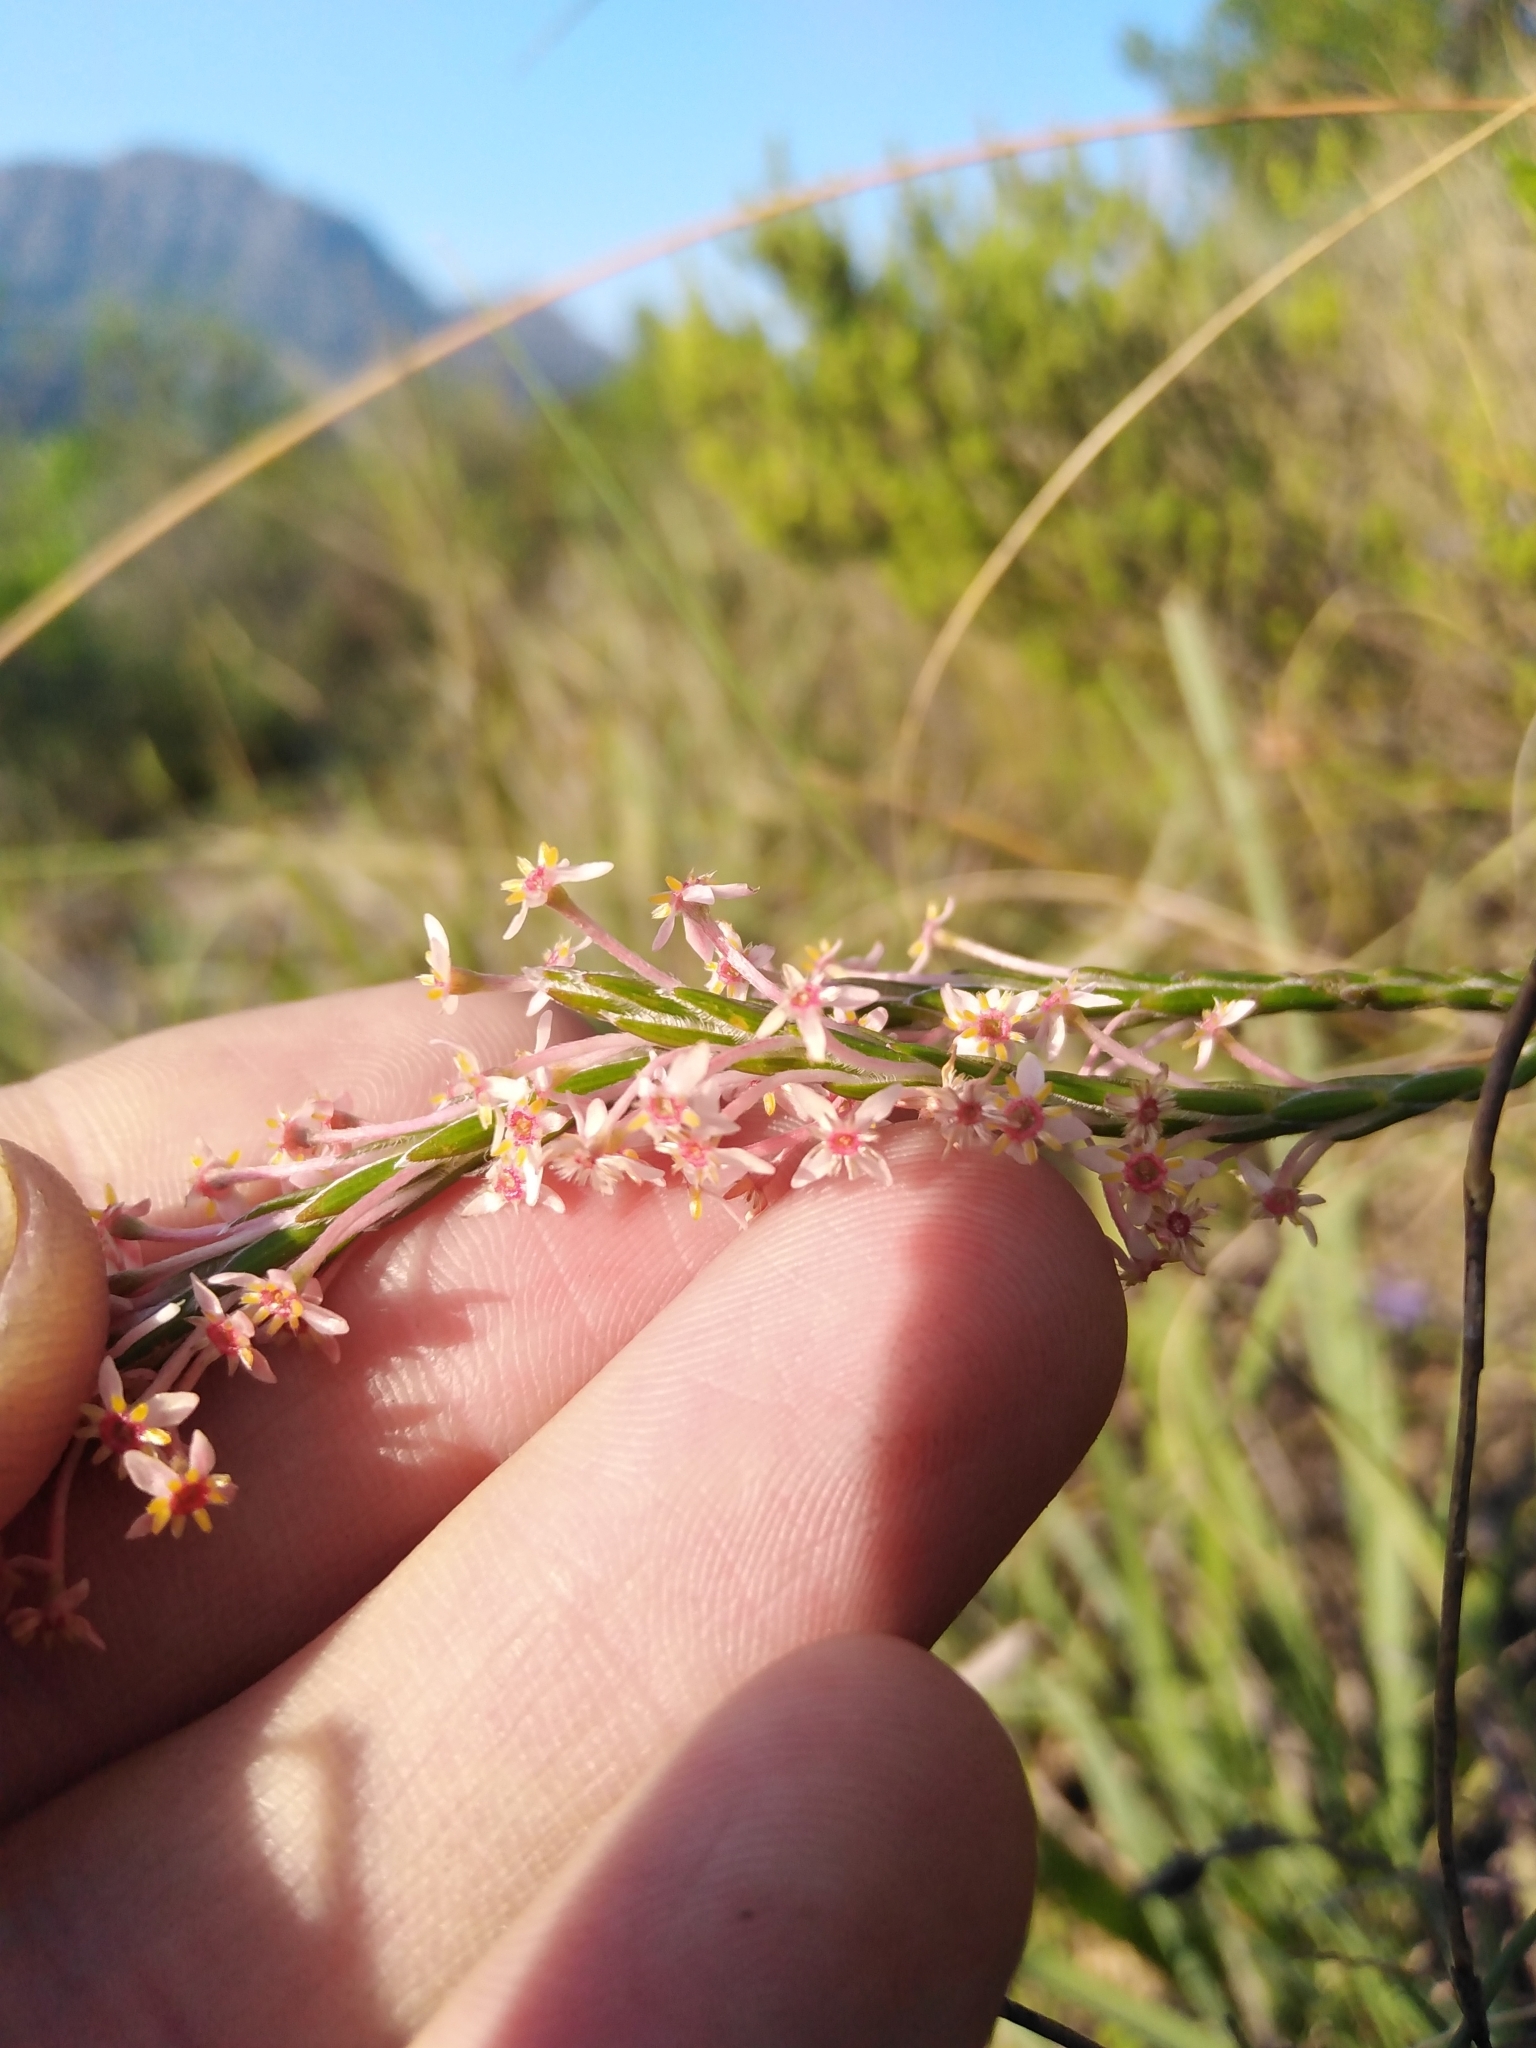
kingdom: Plantae
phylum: Tracheophyta
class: Magnoliopsida
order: Malvales
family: Thymelaeaceae
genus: Struthiola
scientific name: Struthiola ciliata
